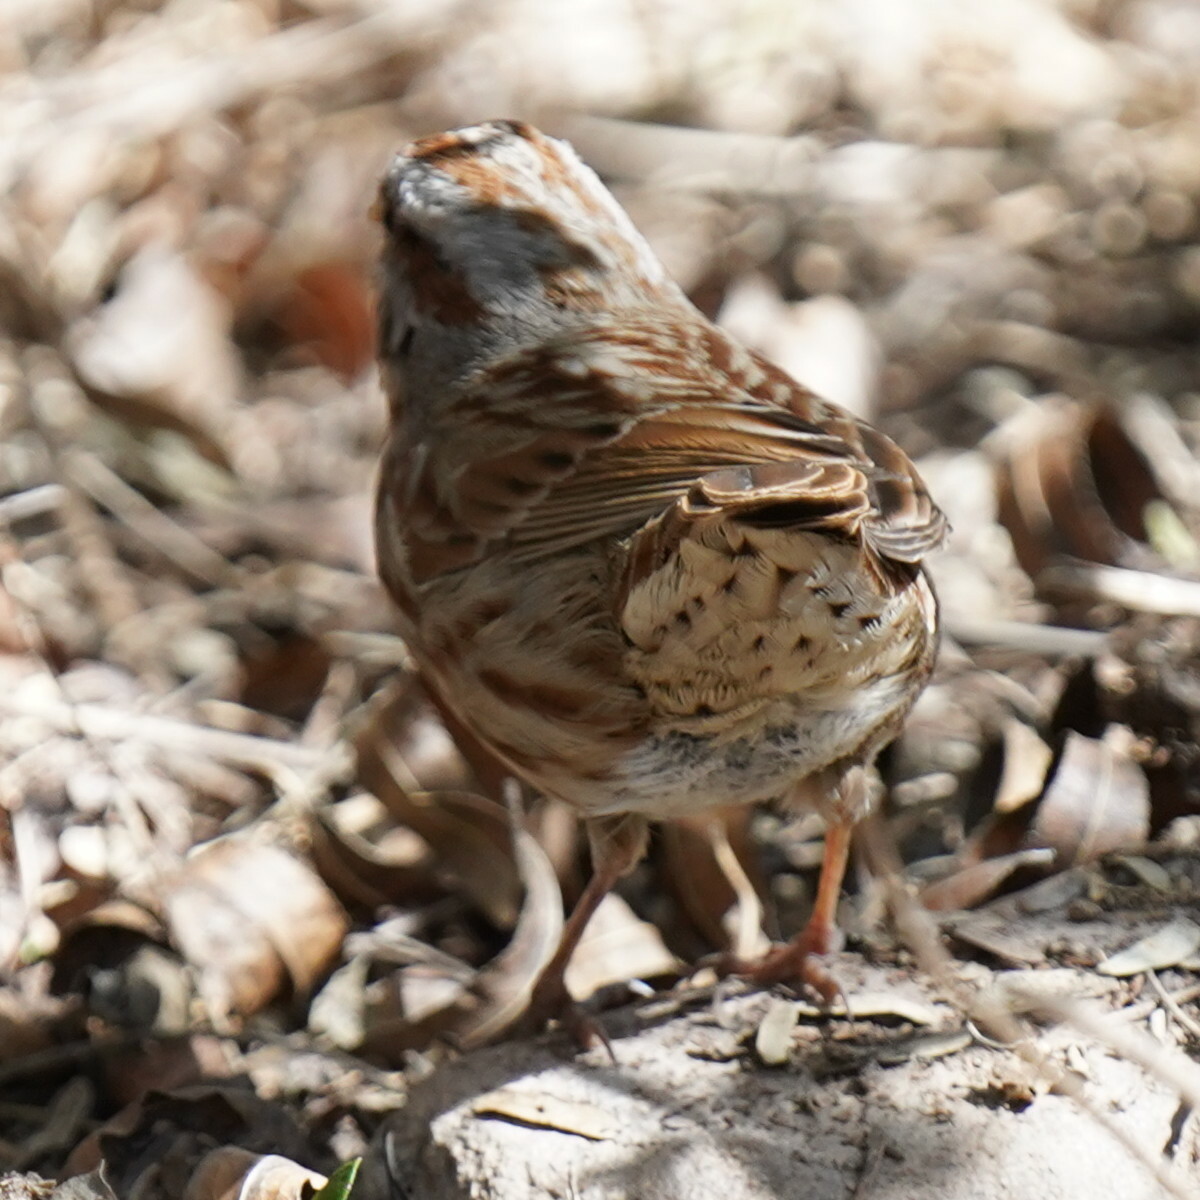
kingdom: Animalia
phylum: Chordata
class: Aves
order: Passeriformes
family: Passerellidae
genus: Melospiza
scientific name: Melospiza melodia
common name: Song sparrow
